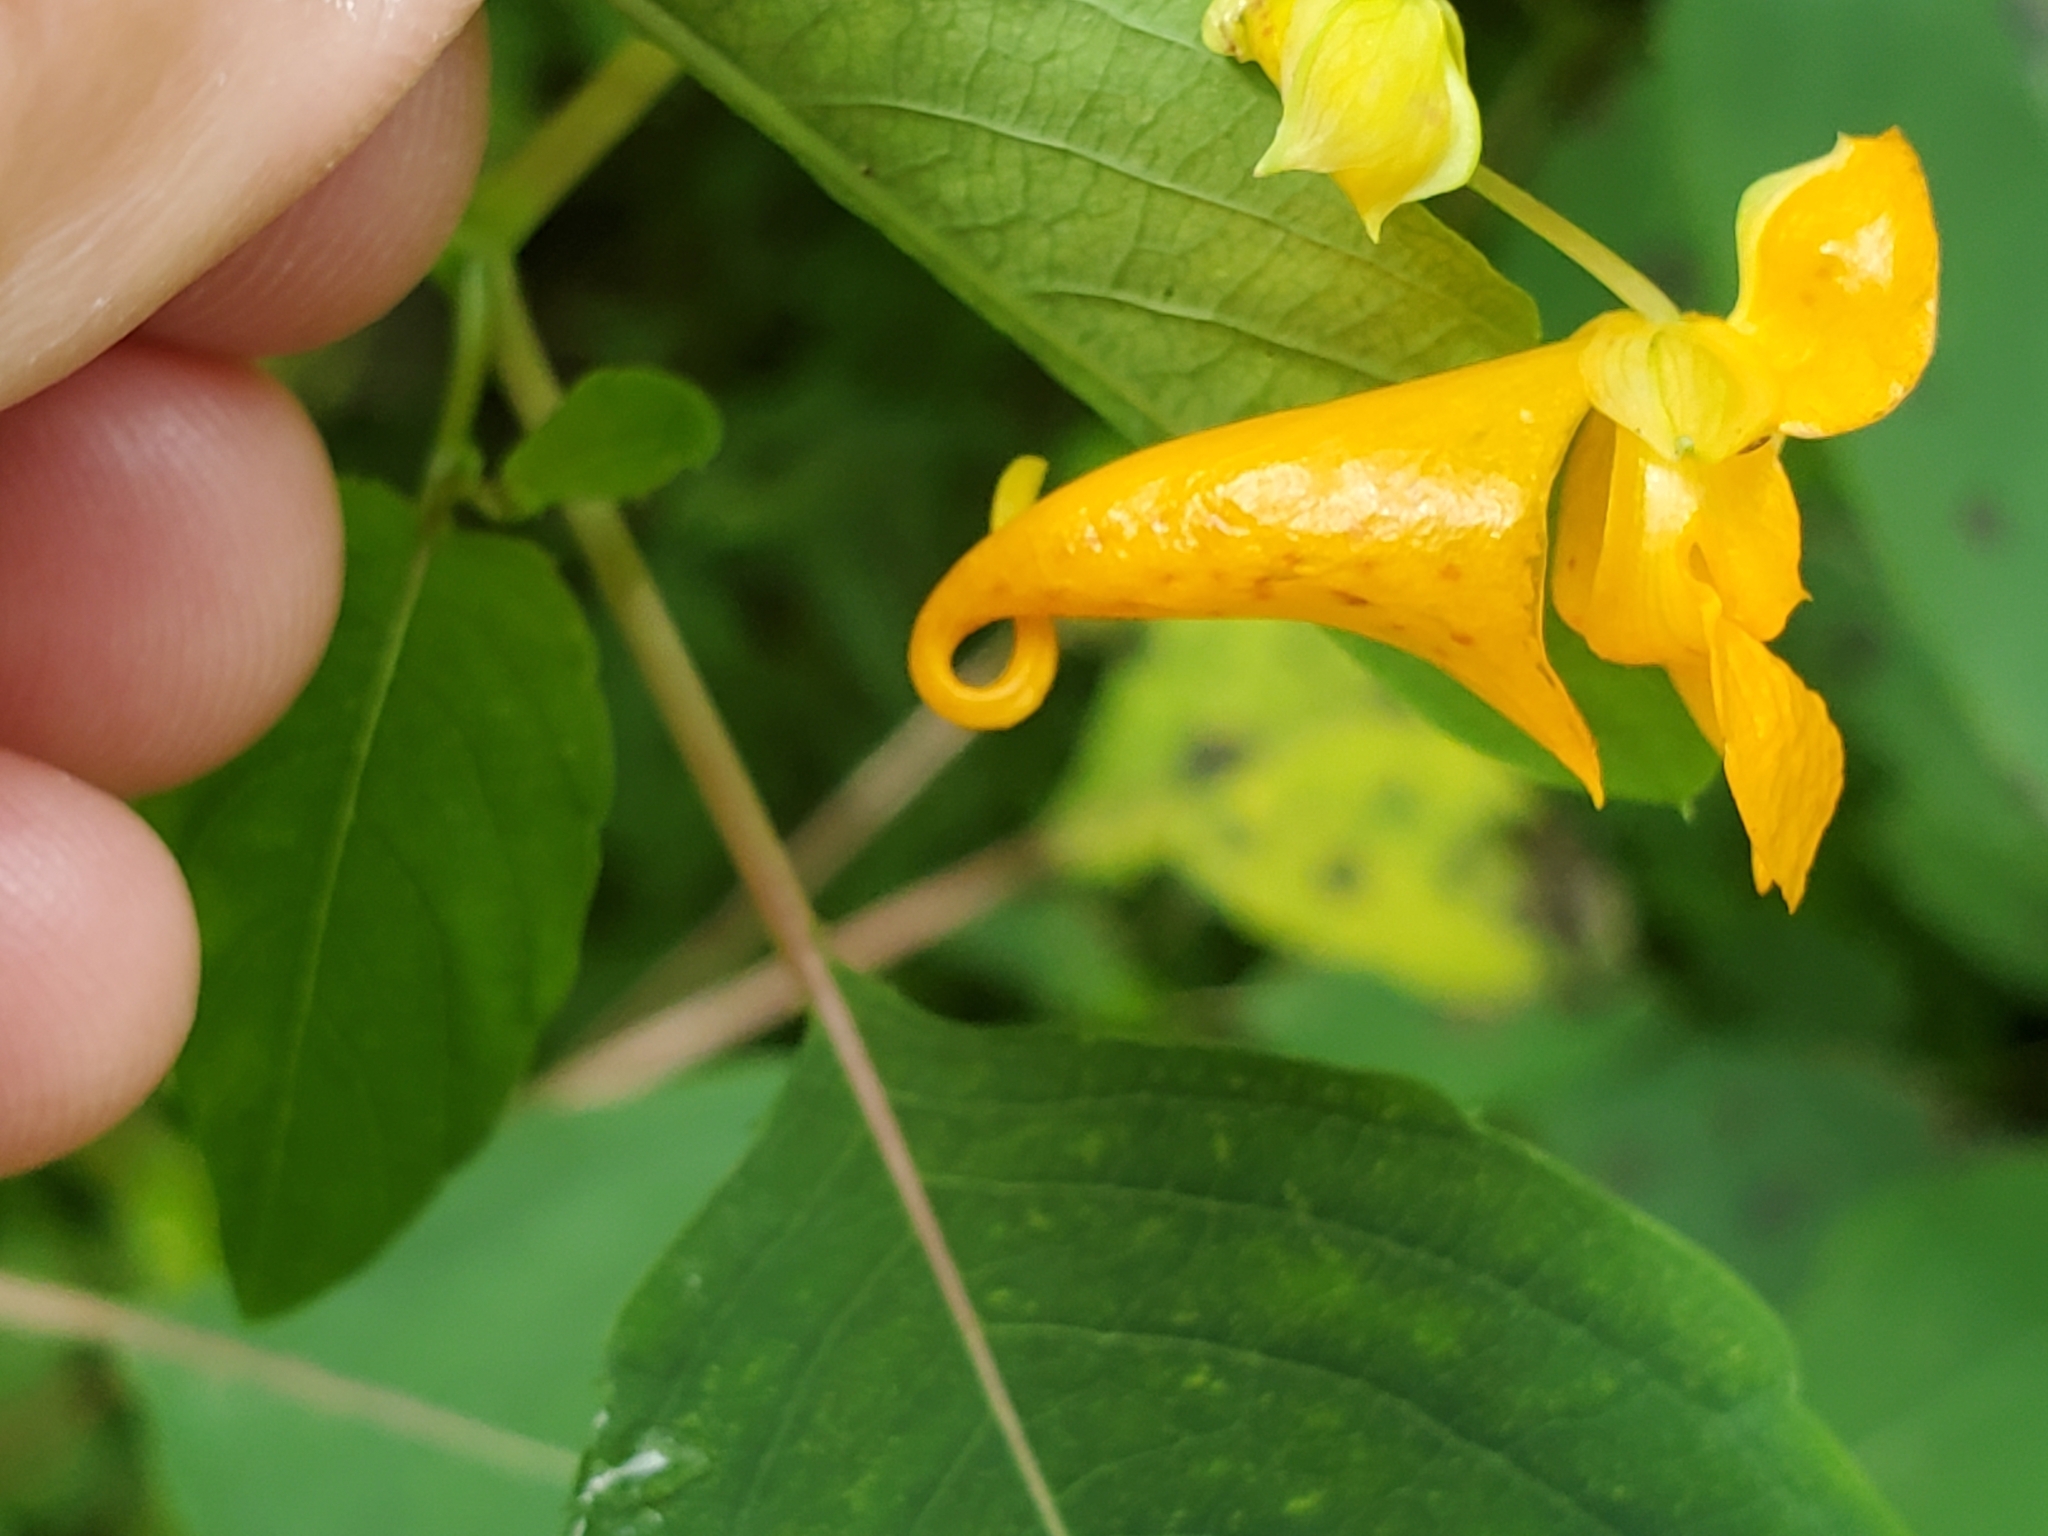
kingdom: Plantae
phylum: Tracheophyta
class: Magnoliopsida
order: Ericales
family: Balsaminaceae
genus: Impatiens
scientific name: Impatiens capensis
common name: Orange balsam
